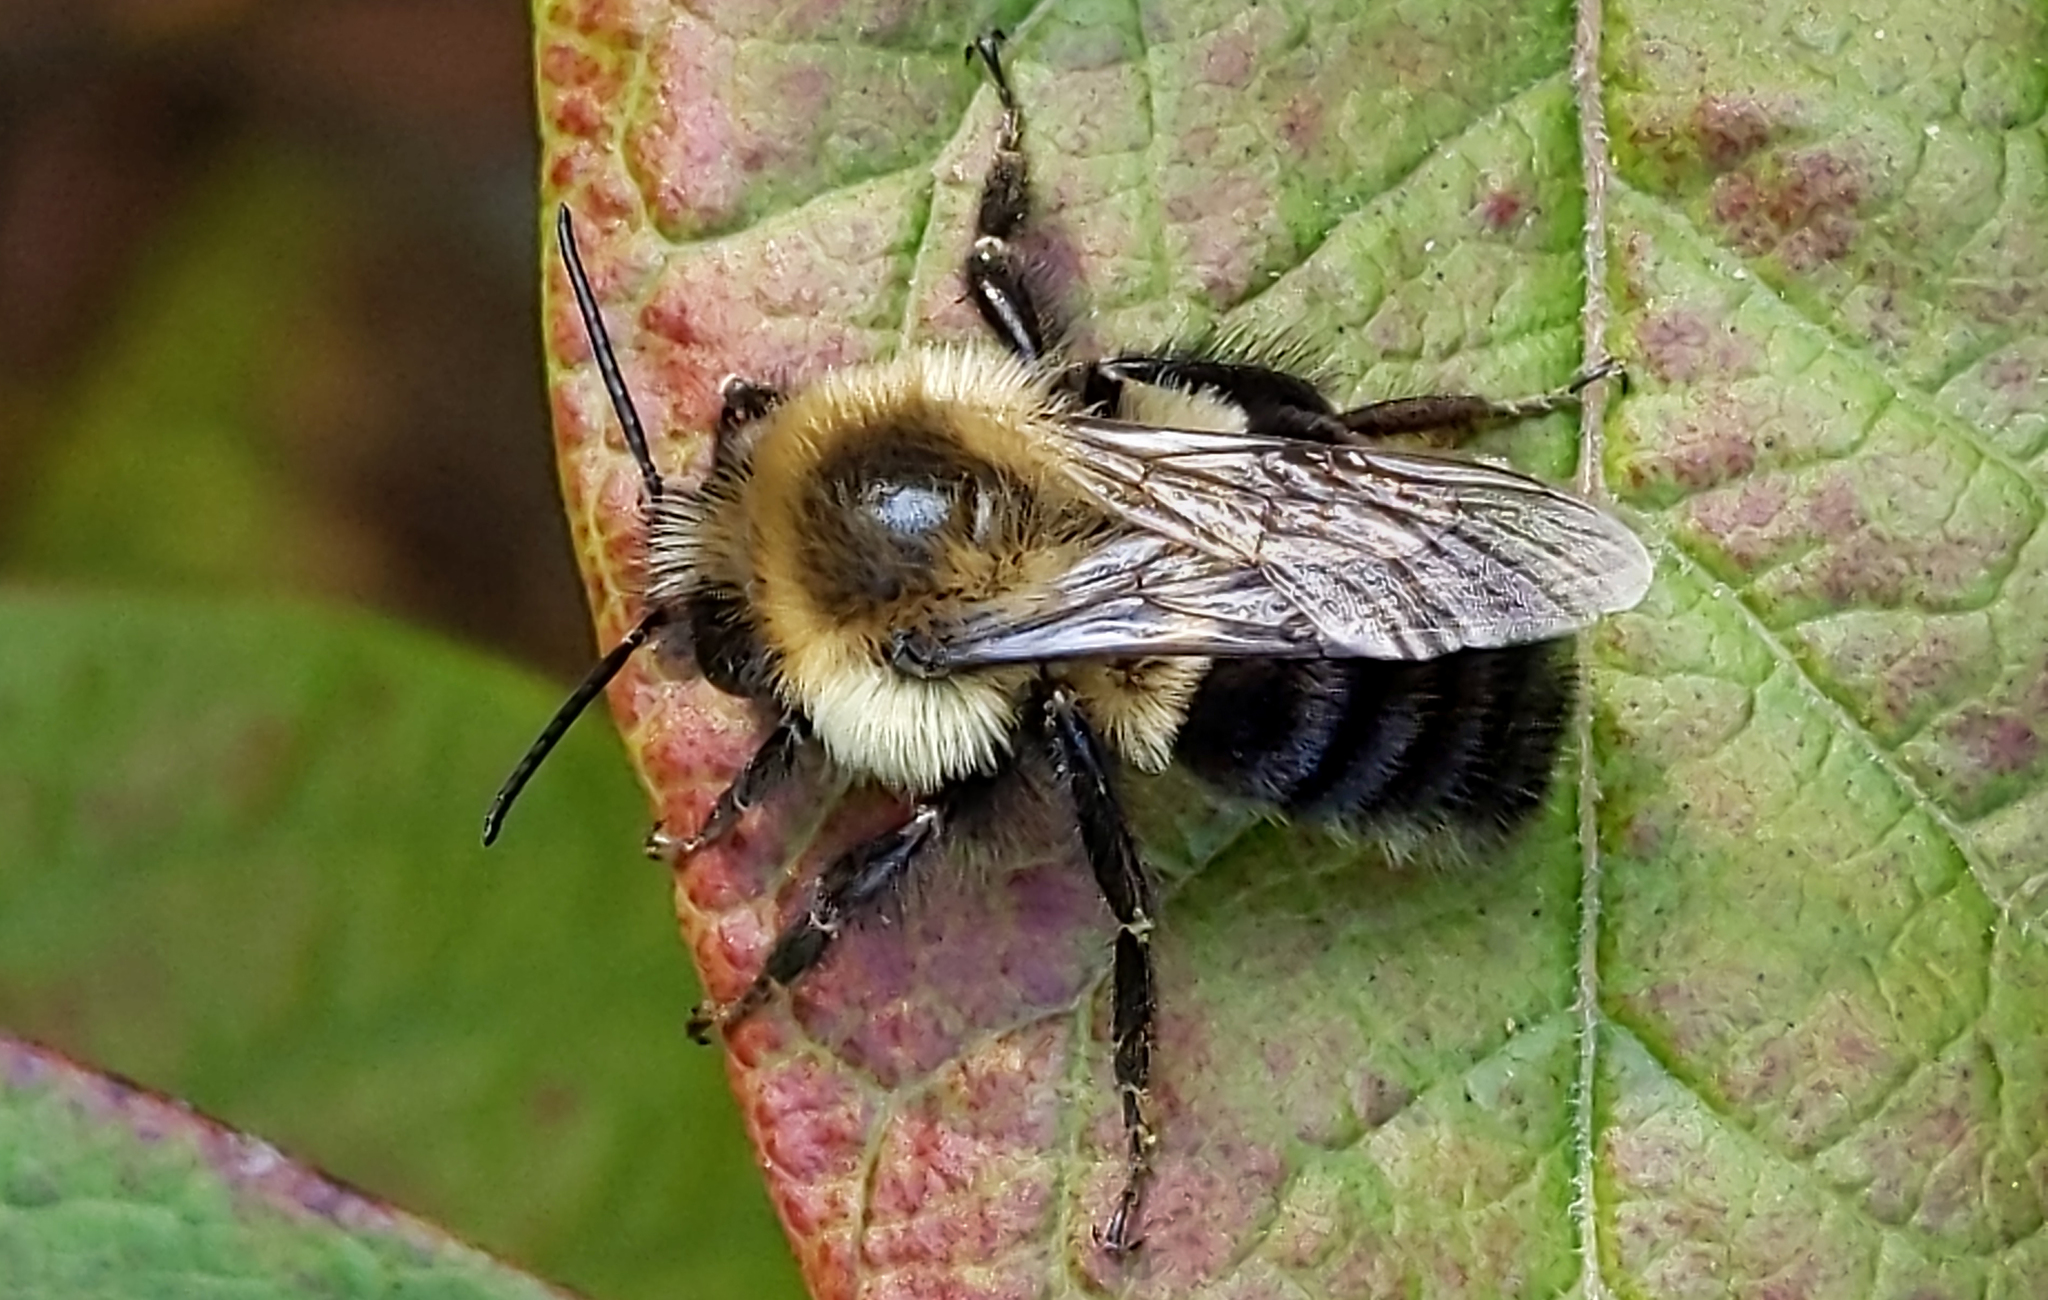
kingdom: Animalia
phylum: Arthropoda
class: Insecta
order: Hymenoptera
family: Apidae
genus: Bombus
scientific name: Bombus impatiens
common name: Common eastern bumble bee
